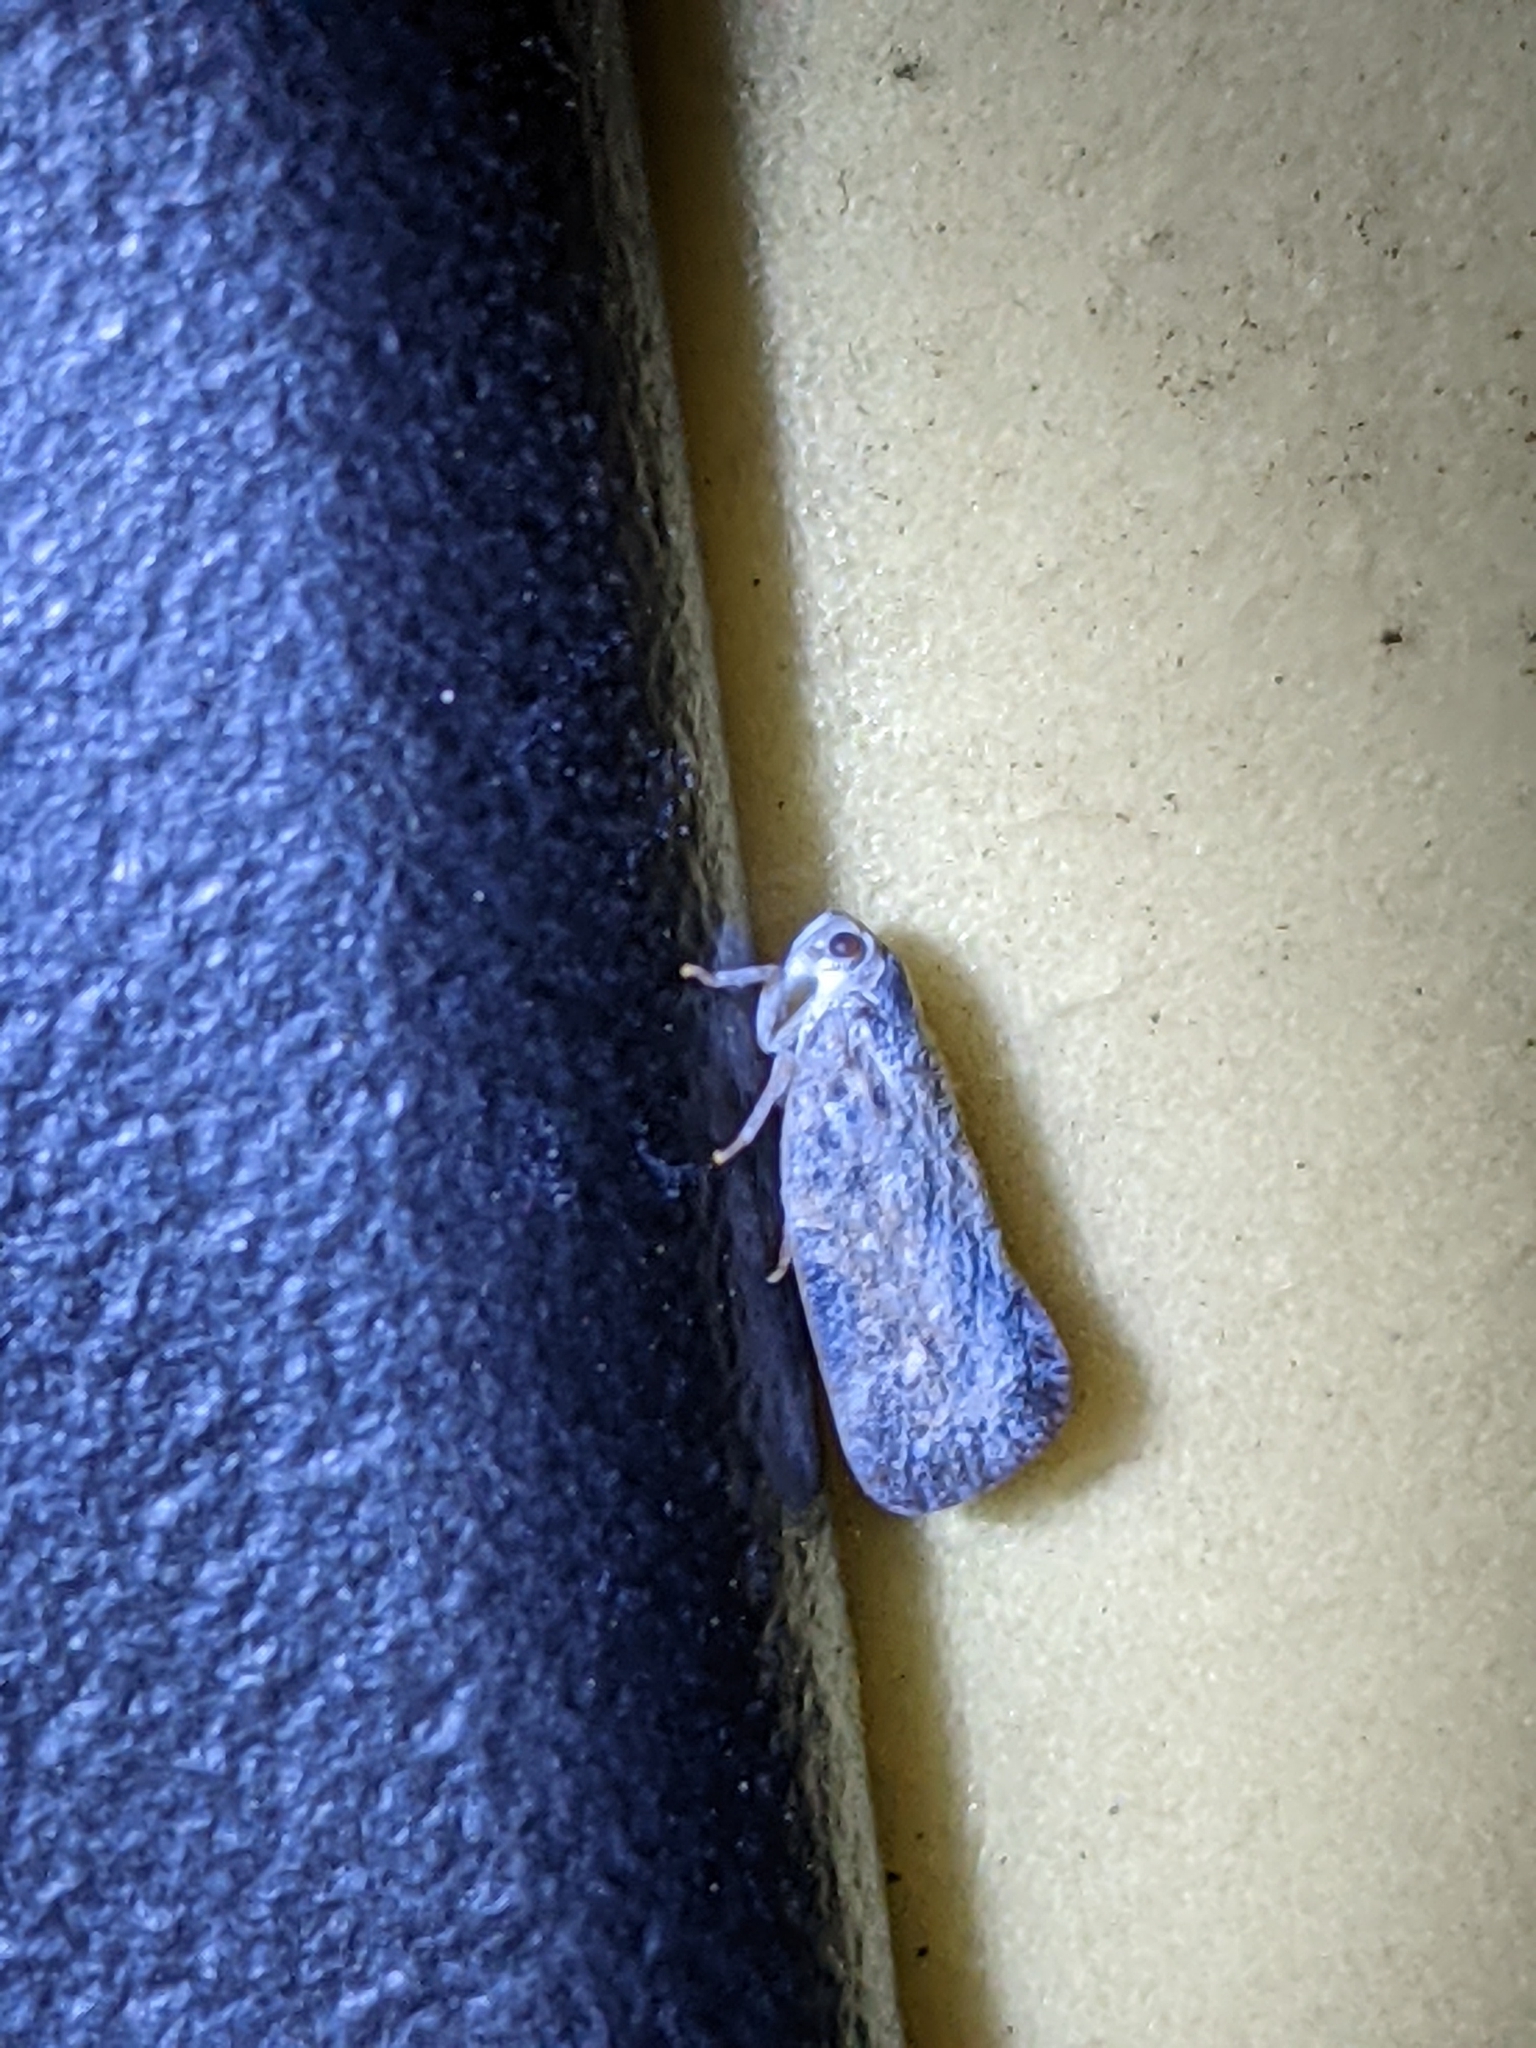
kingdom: Animalia
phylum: Arthropoda
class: Insecta
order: Hemiptera
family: Flatidae
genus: Metcalfa
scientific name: Metcalfa pruinosa
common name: Citrus flatid planthopper
